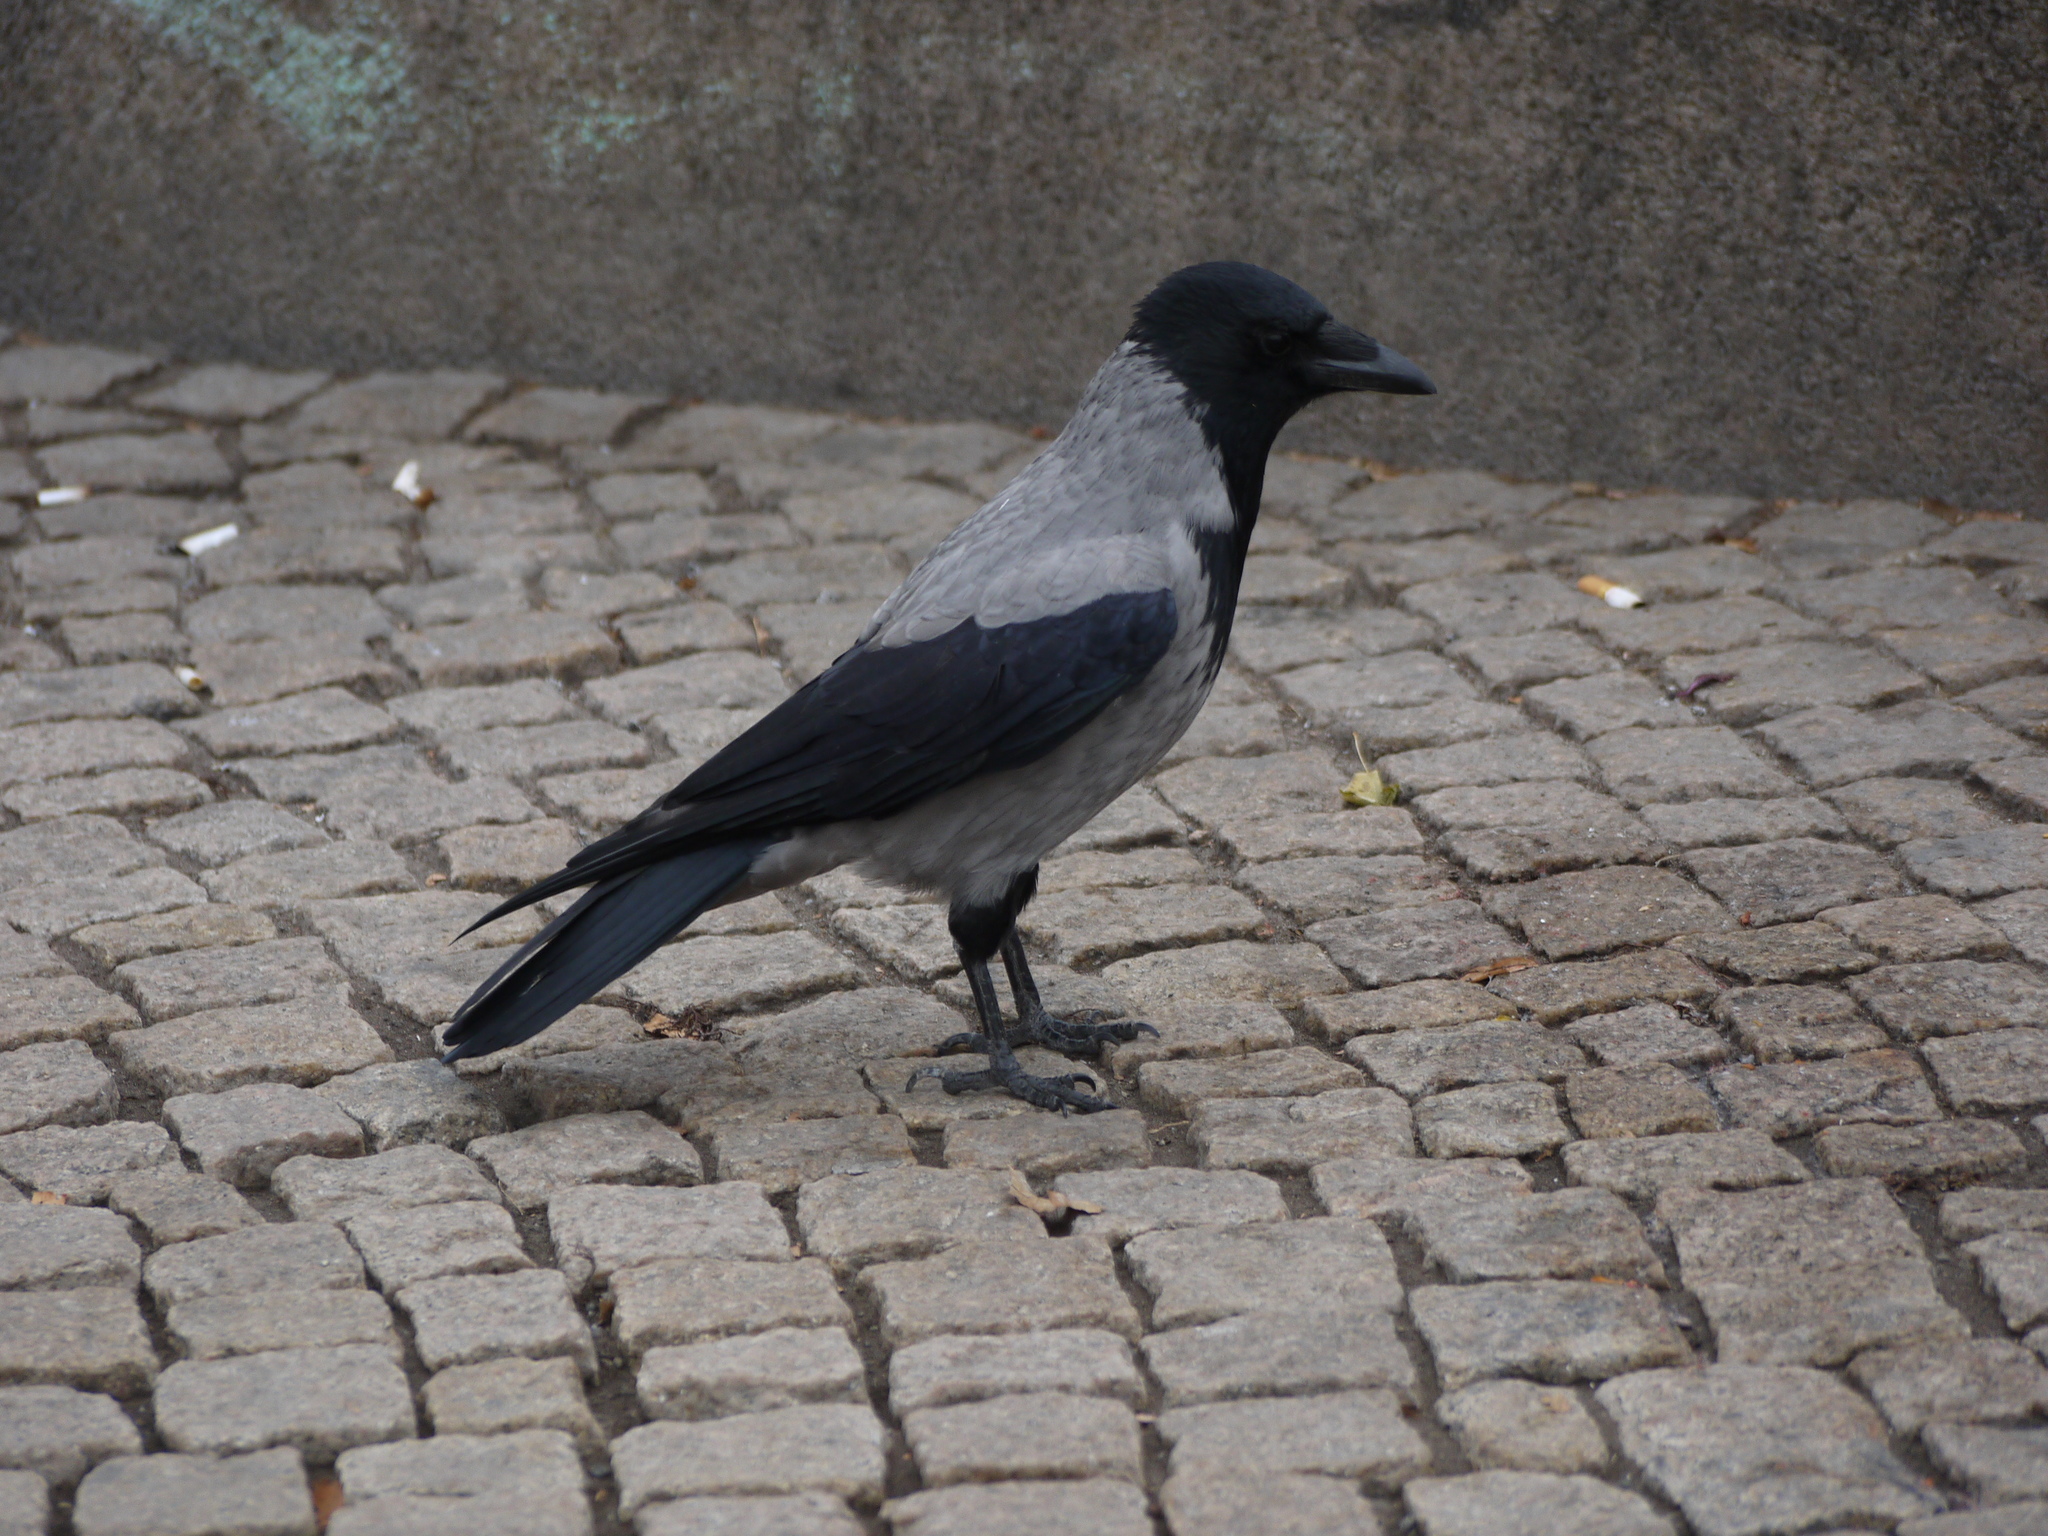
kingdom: Animalia
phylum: Chordata
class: Aves
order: Passeriformes
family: Corvidae
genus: Corvus
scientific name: Corvus cornix
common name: Hooded crow
